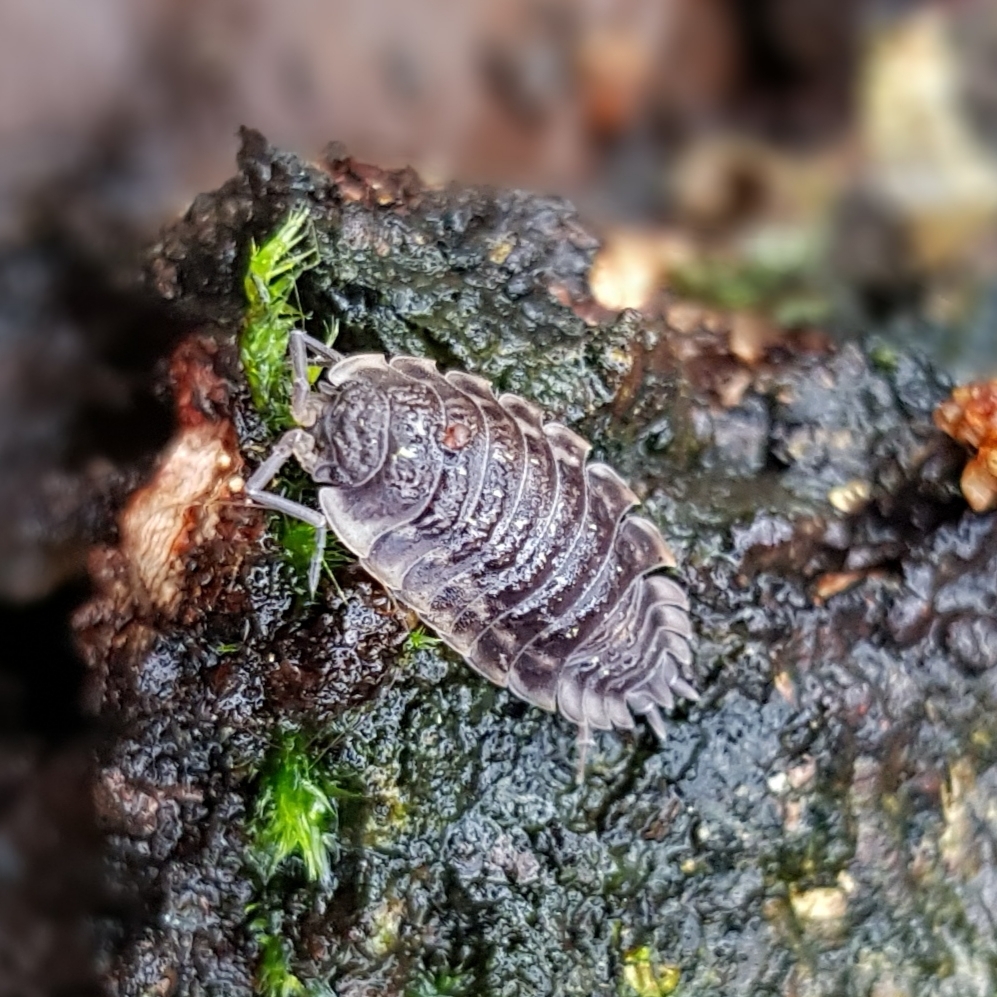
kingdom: Animalia
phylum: Arthropoda
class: Malacostraca
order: Isopoda
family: Oniscidae
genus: Oniscus
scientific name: Oniscus asellus
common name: Common shiny woodlouse
